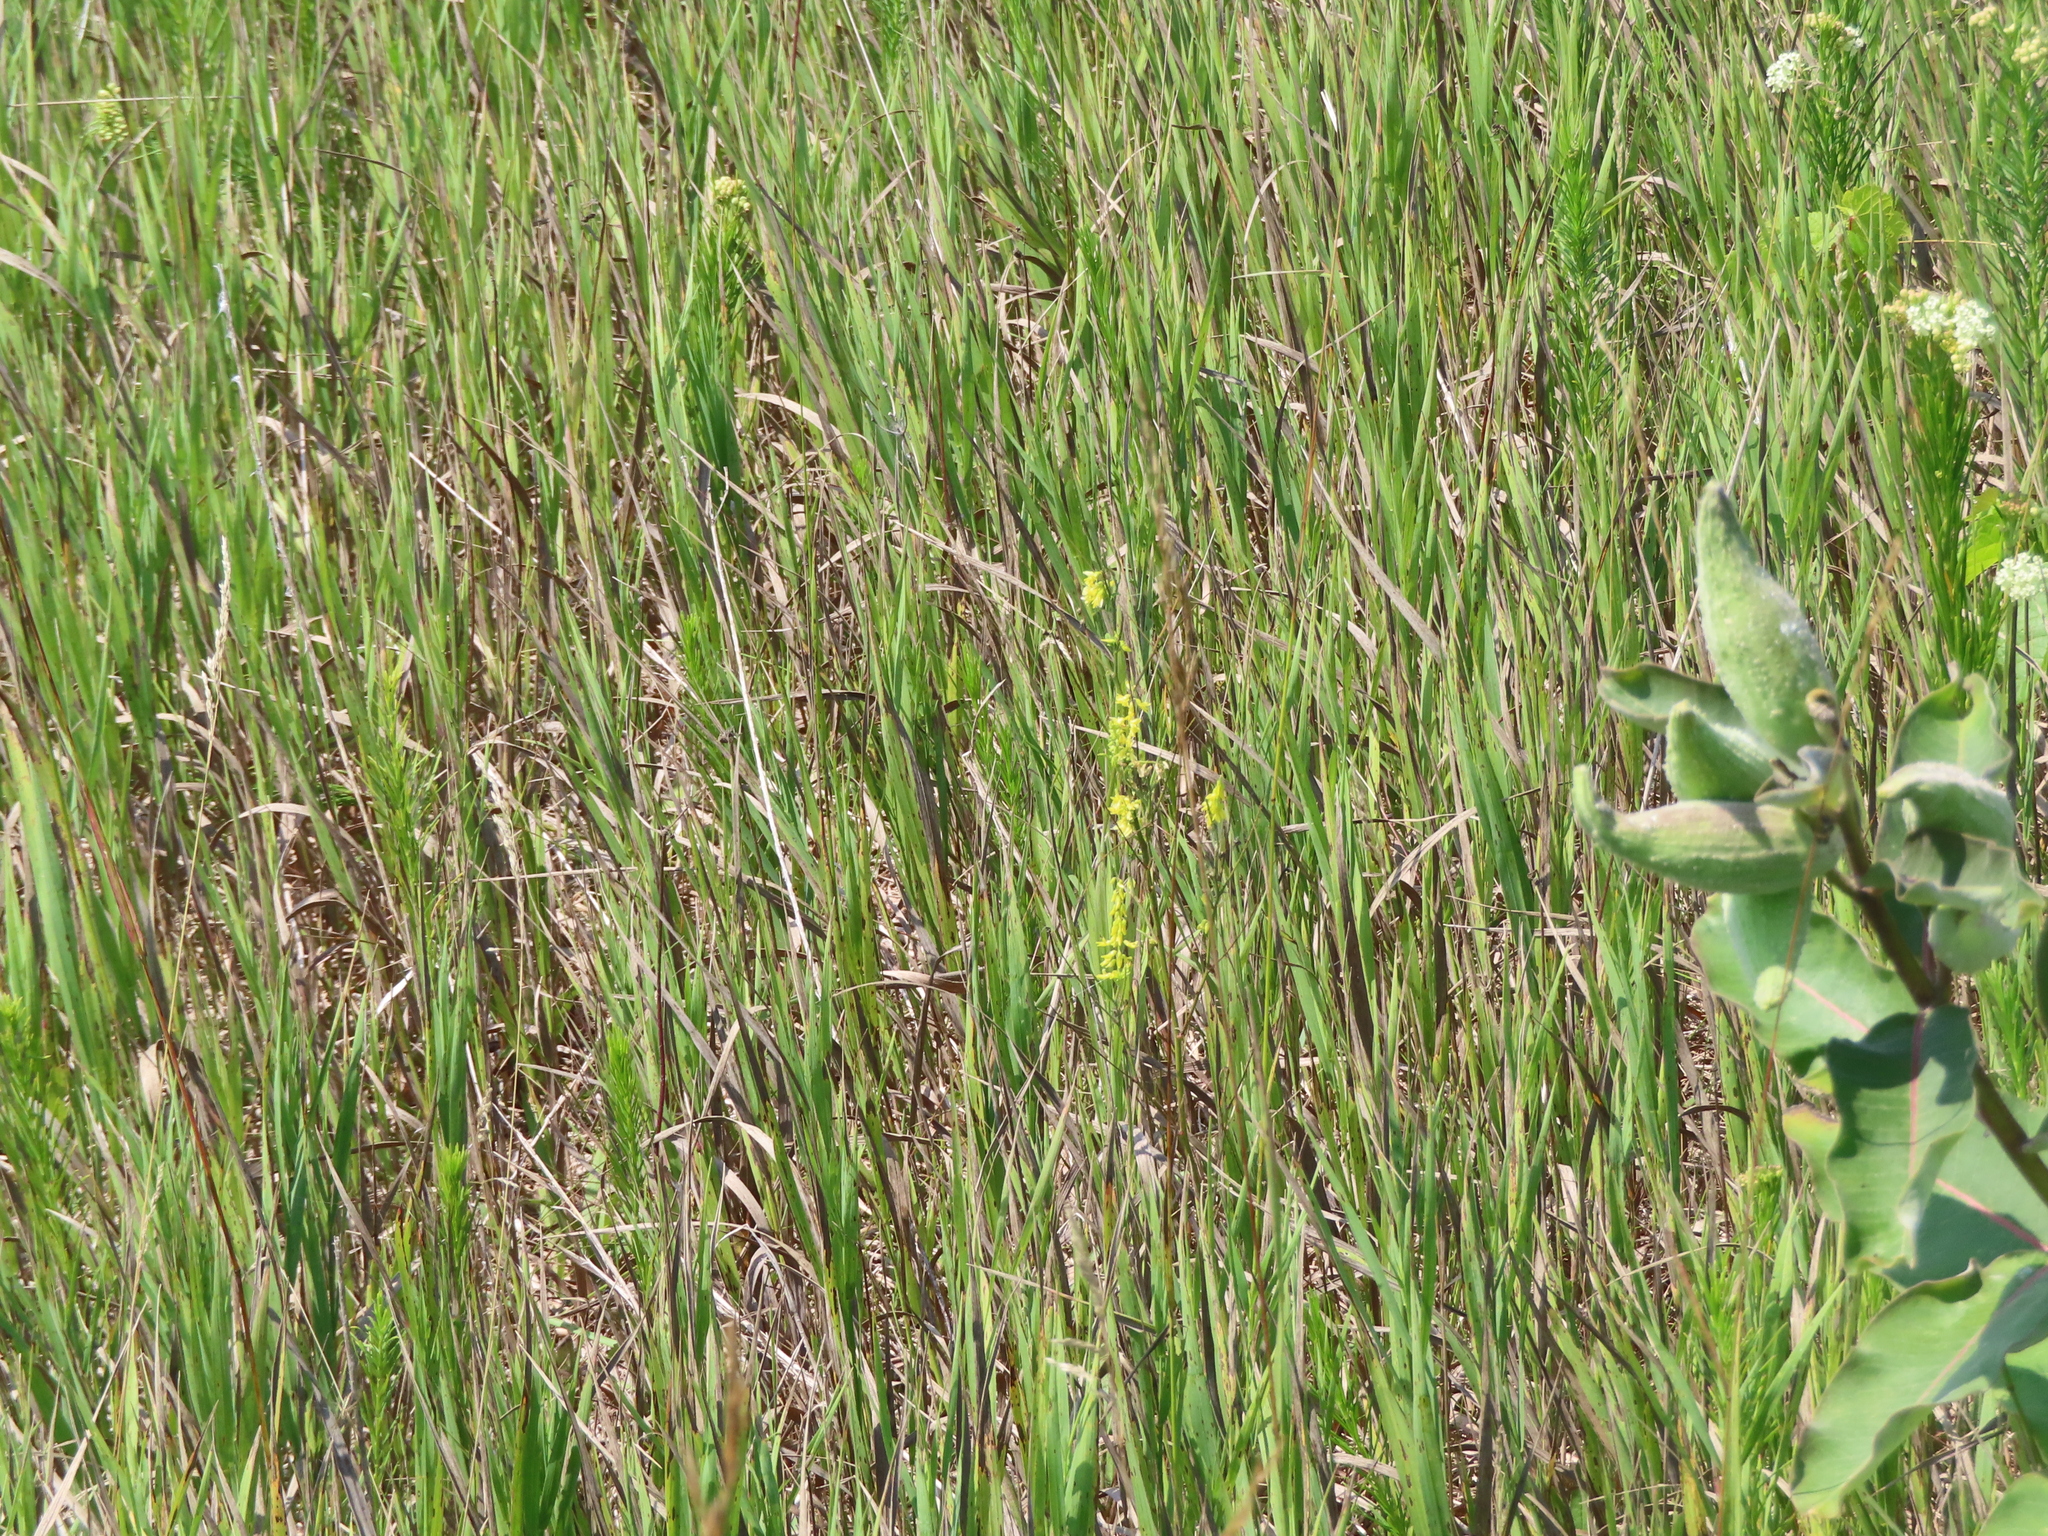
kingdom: Plantae
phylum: Tracheophyta
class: Magnoliopsida
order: Fabales
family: Fabaceae
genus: Melilotus
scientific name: Melilotus officinalis
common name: Sweetclover
